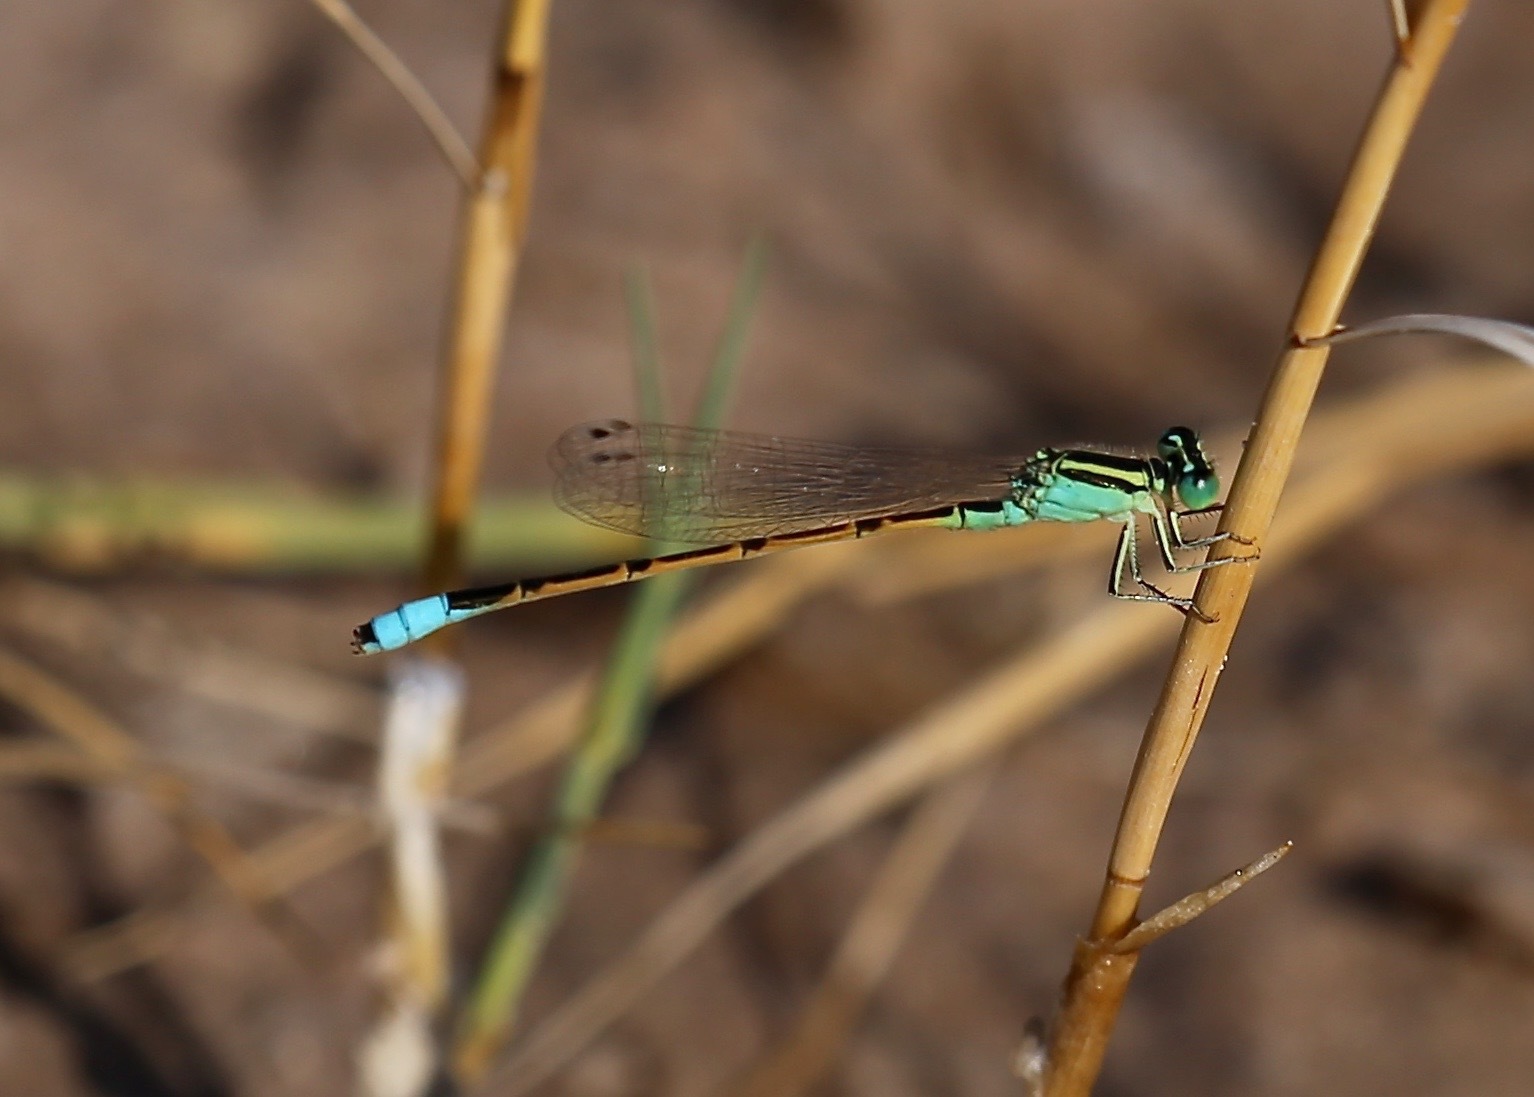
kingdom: Animalia
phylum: Arthropoda
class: Insecta
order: Odonata
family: Coenagrionidae
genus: Ischnura
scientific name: Ischnura barberi
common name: Desert forktail
